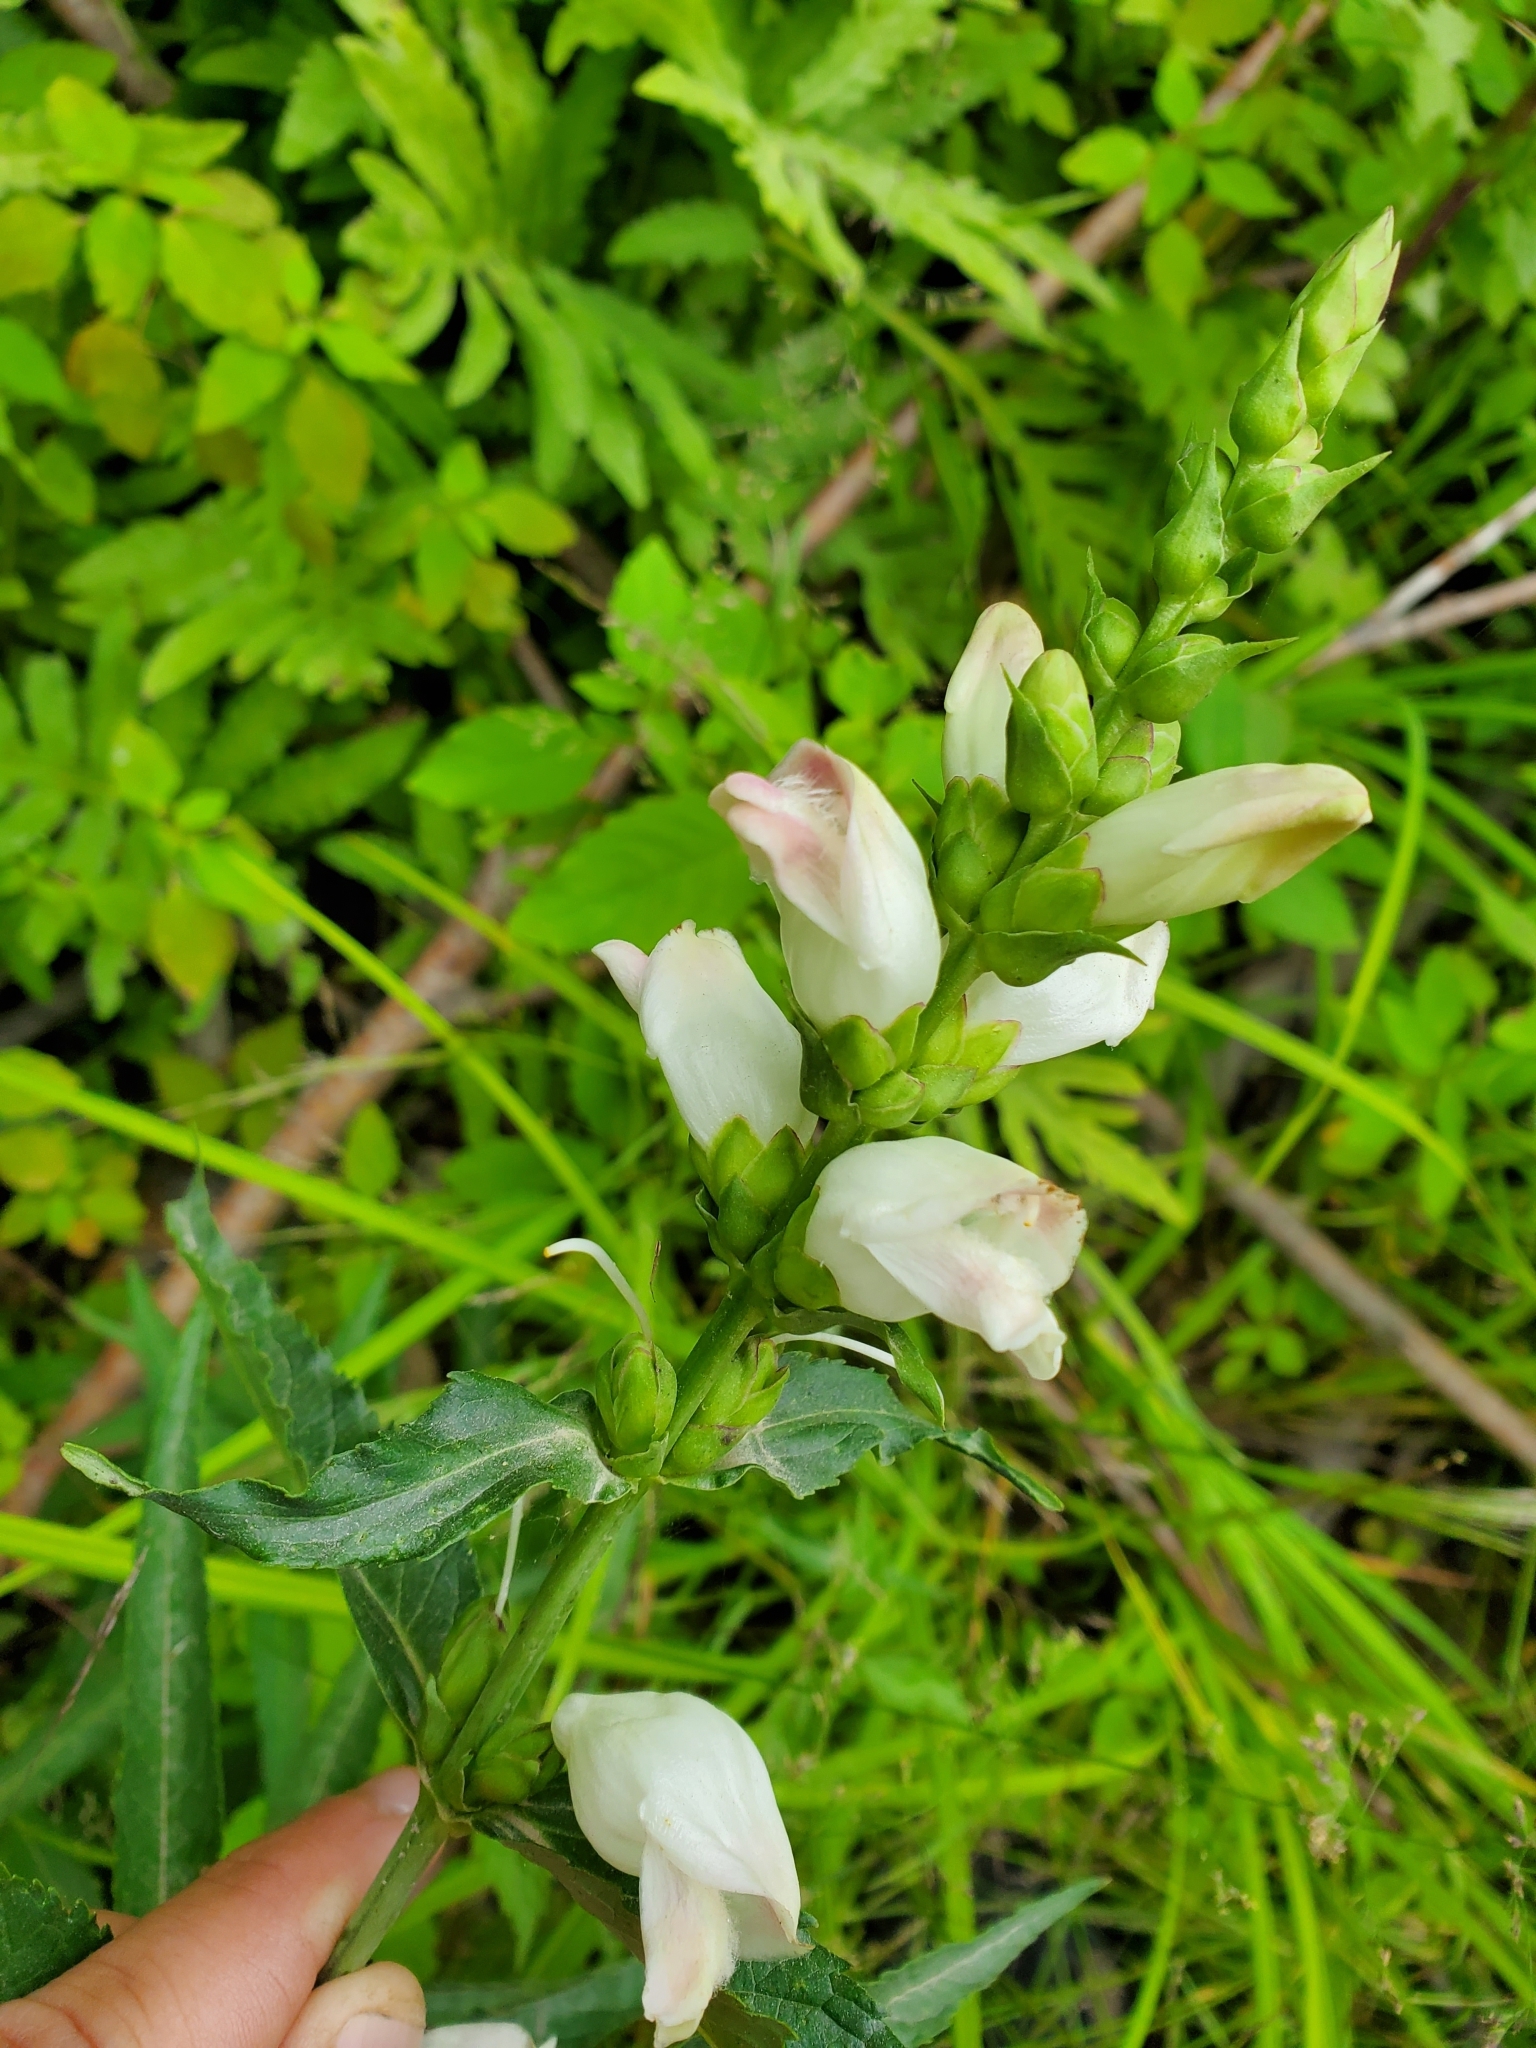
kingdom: Plantae
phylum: Tracheophyta
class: Magnoliopsida
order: Lamiales
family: Plantaginaceae
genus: Chelone
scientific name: Chelone glabra
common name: Snakehead
